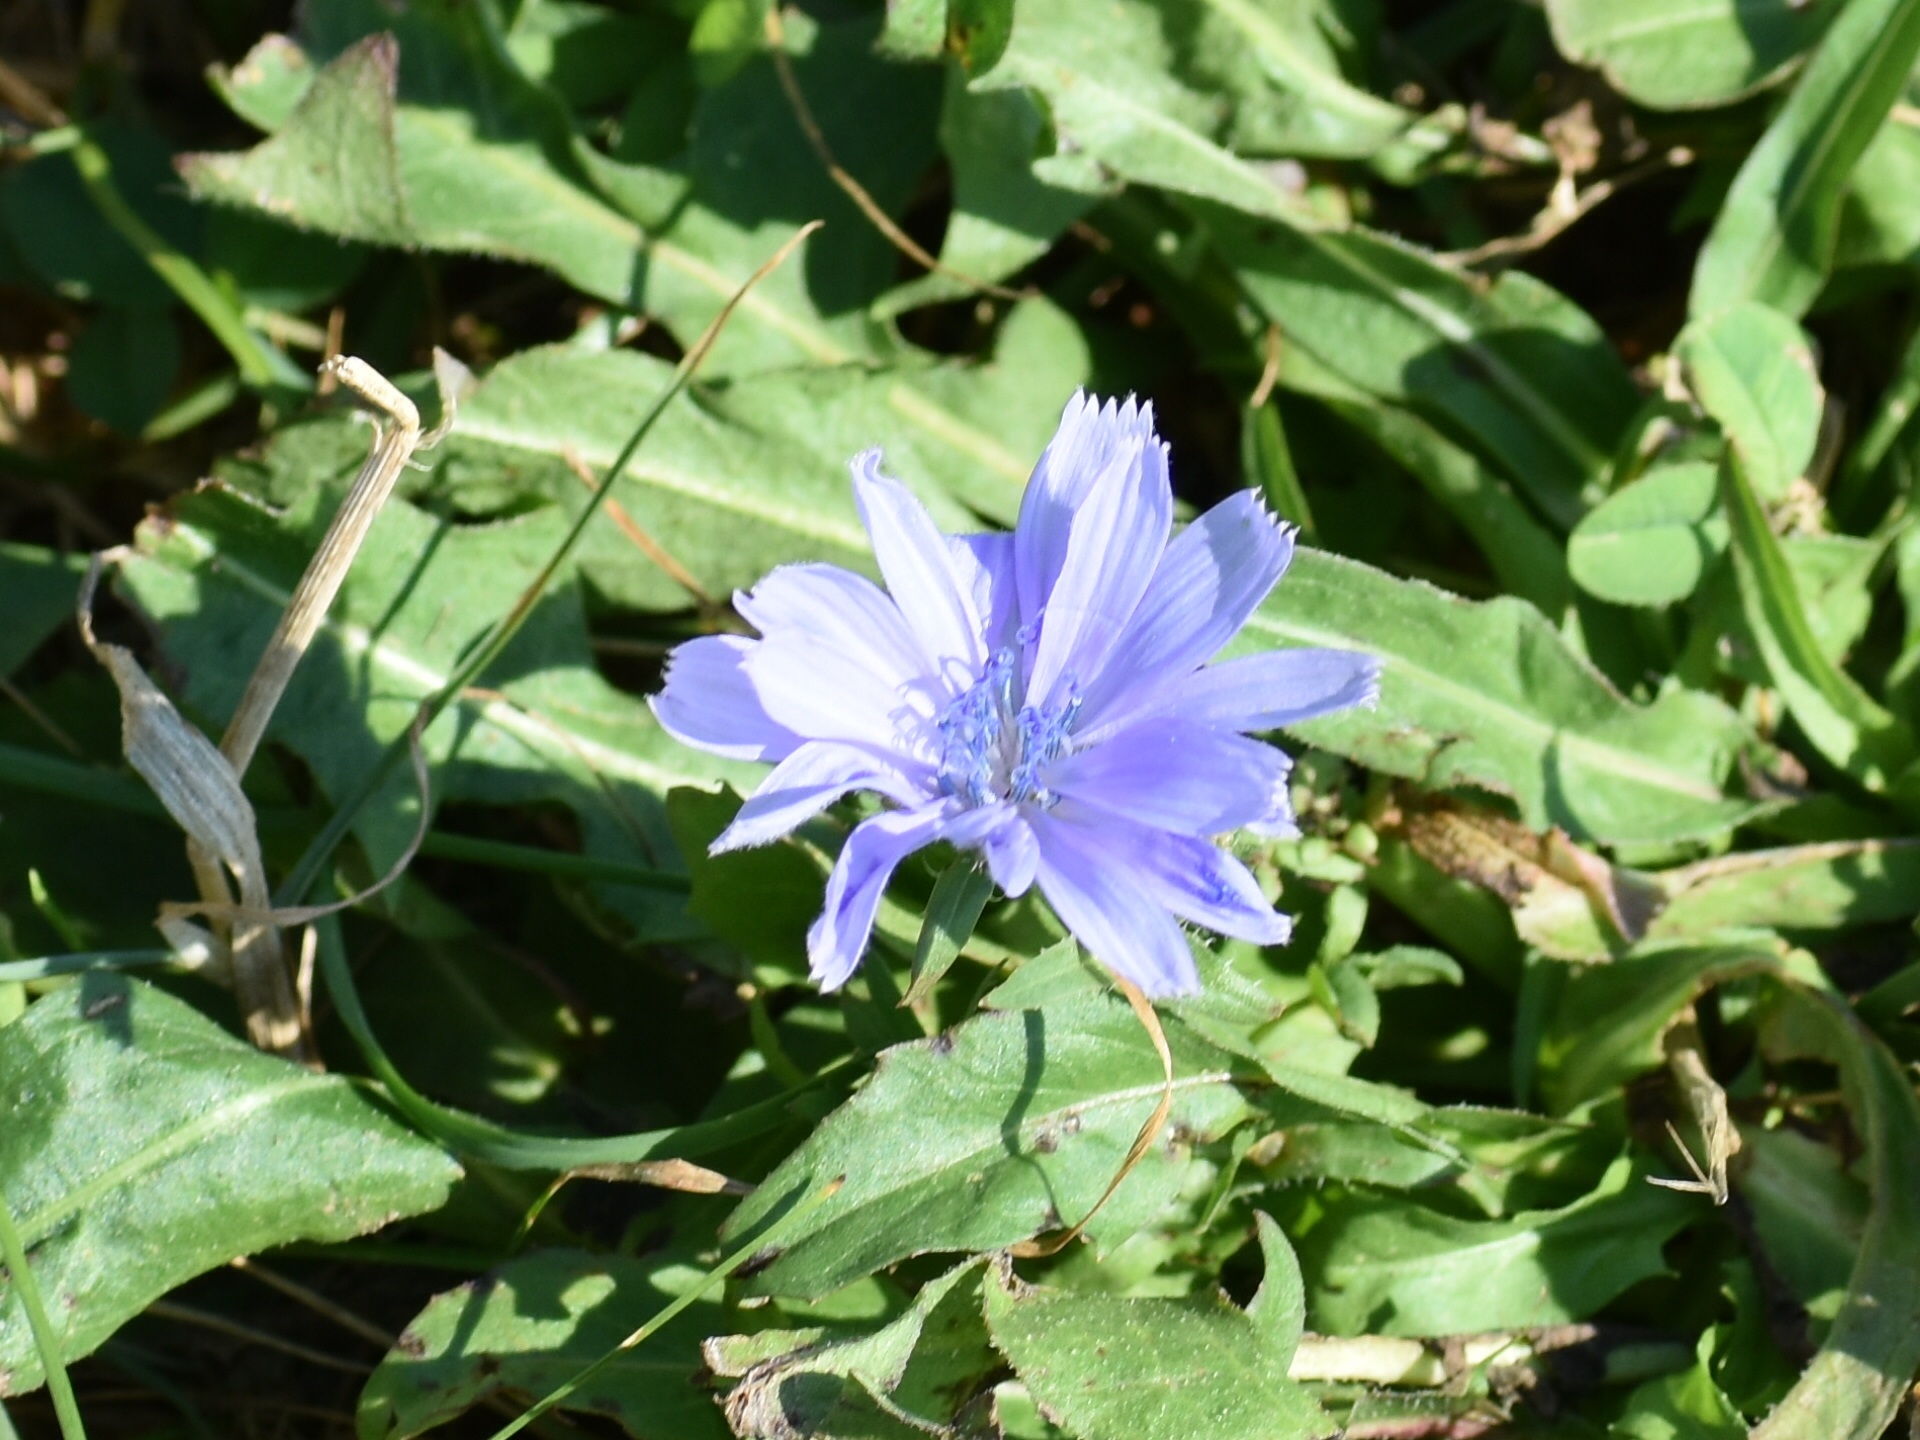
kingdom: Plantae
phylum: Tracheophyta
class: Magnoliopsida
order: Asterales
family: Asteraceae
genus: Cichorium
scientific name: Cichorium intybus
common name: Chicory
